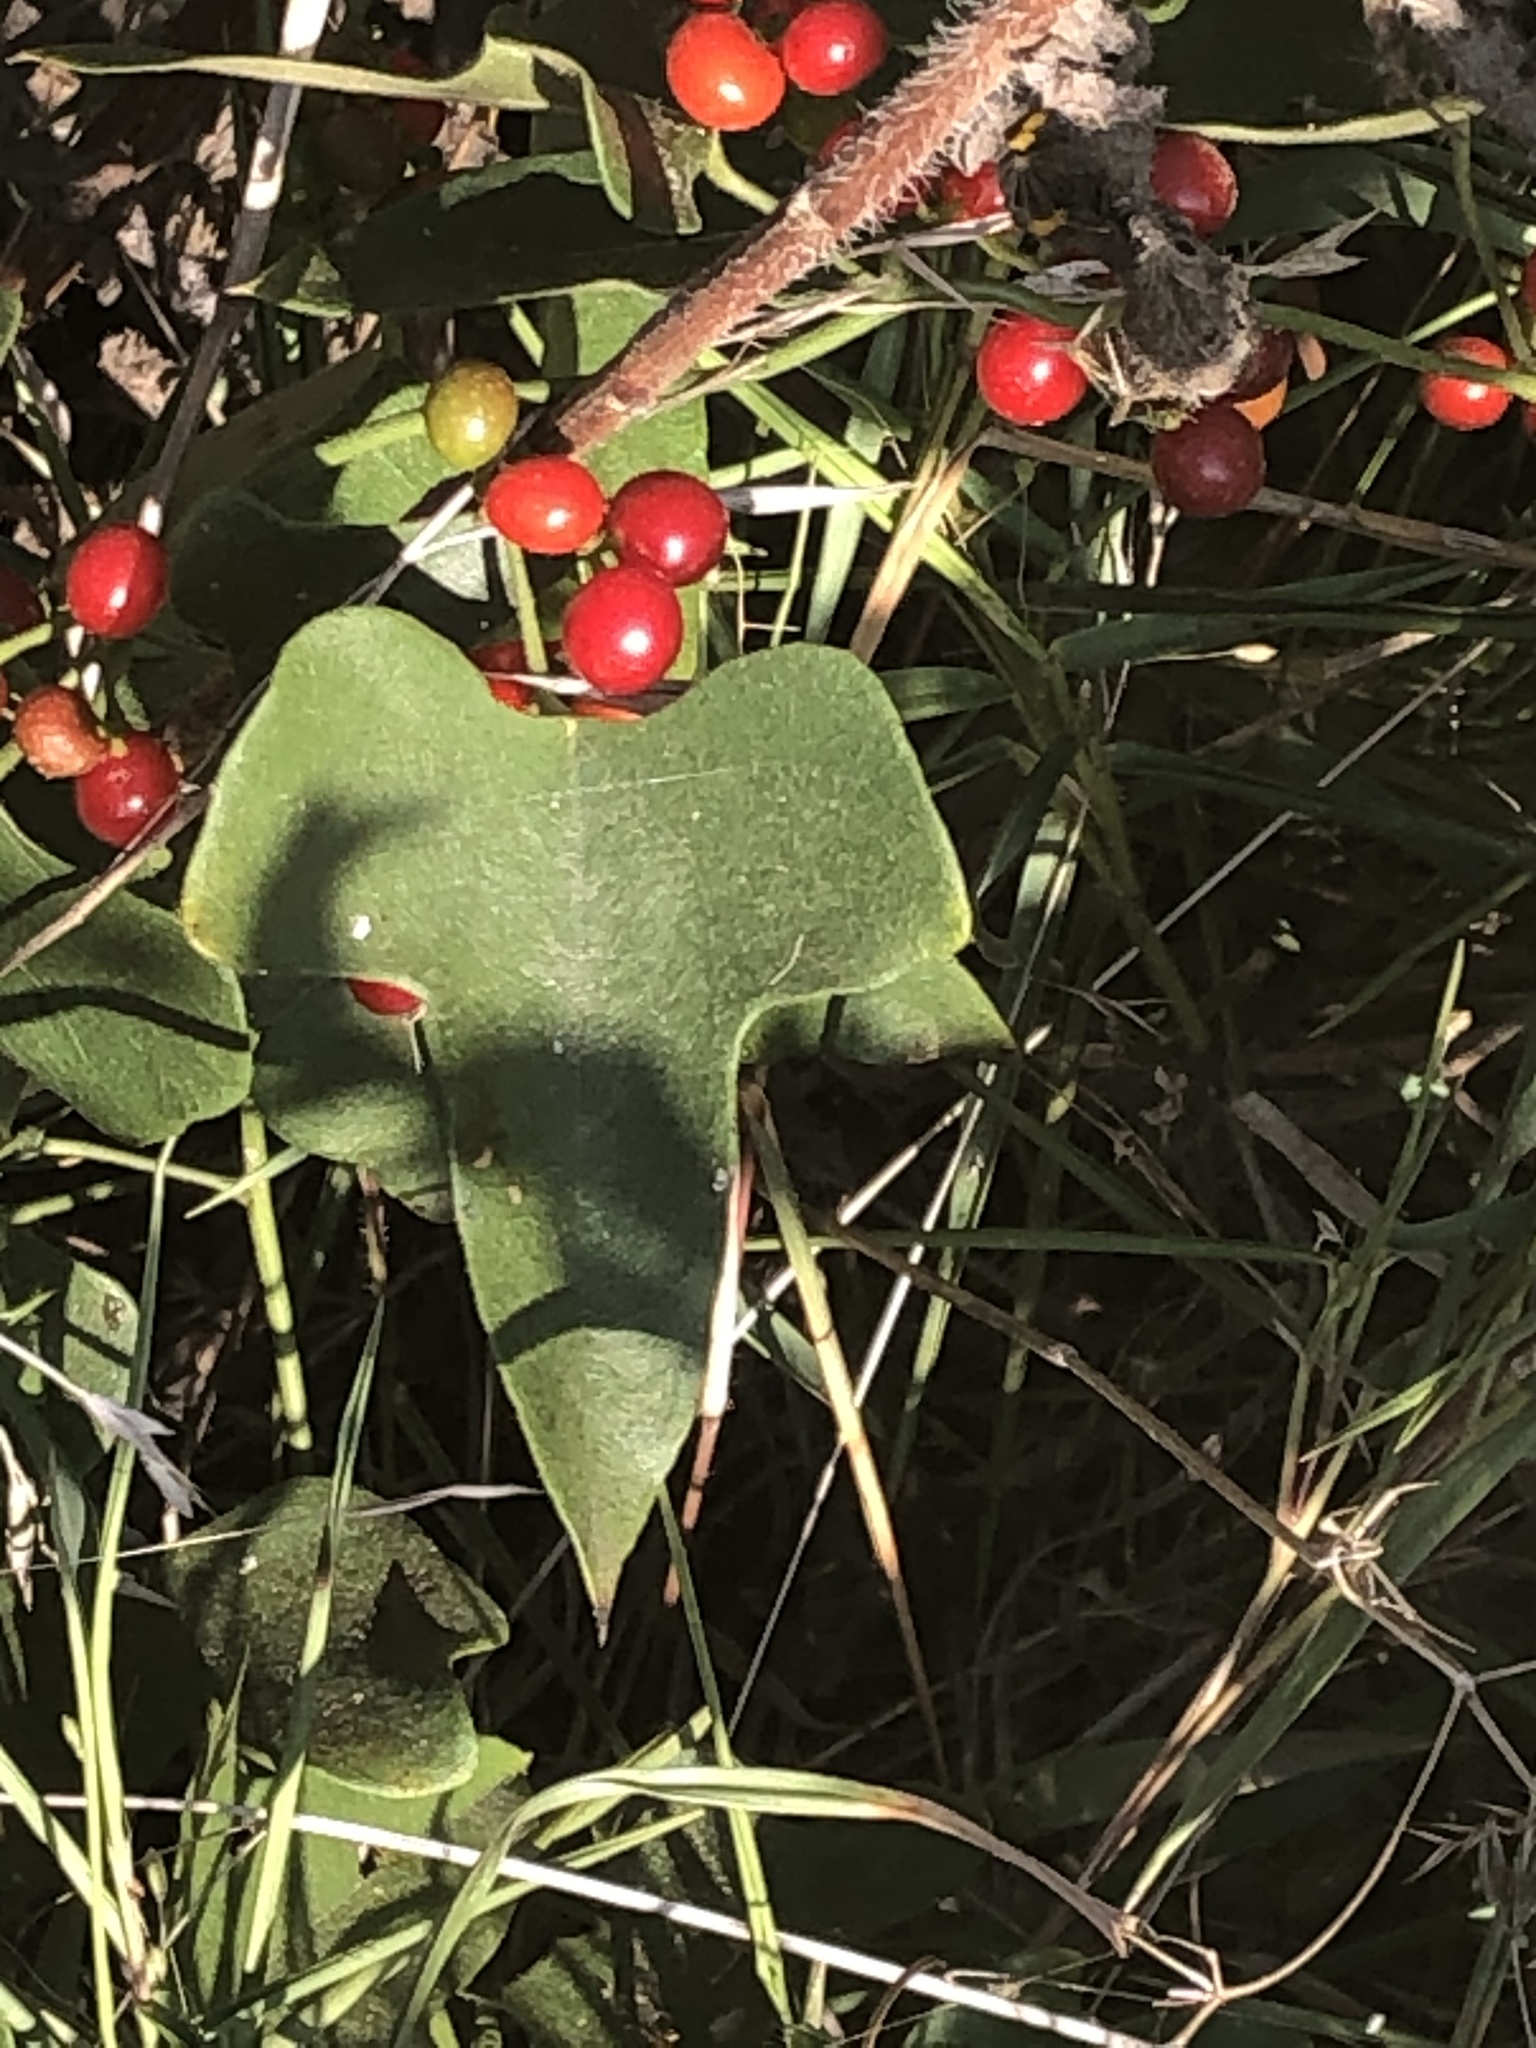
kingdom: Plantae
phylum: Tracheophyta
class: Magnoliopsida
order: Ranunculales
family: Menispermaceae
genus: Cocculus
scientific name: Cocculus carolinus
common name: Carolina moonseed
